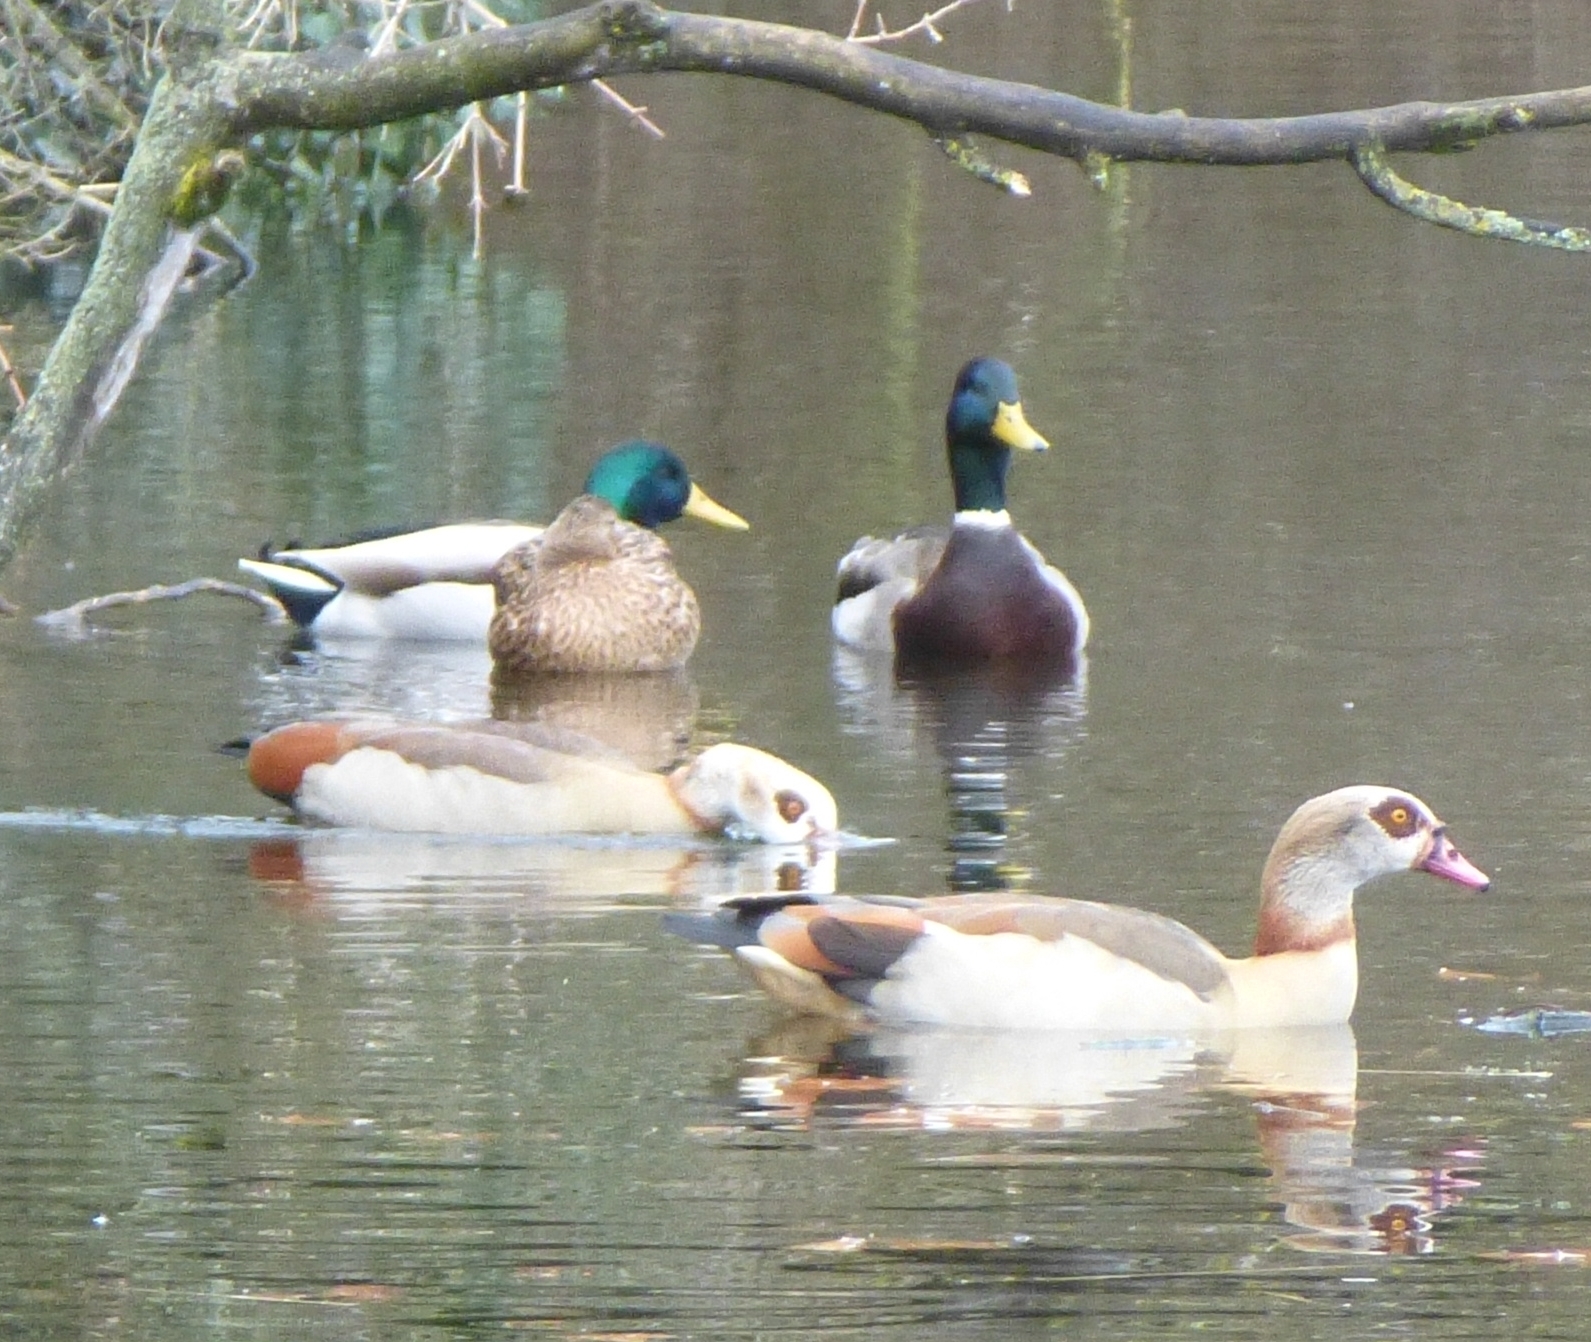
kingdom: Animalia
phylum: Chordata
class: Aves
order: Anseriformes
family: Anatidae
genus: Anas
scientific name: Anas platyrhynchos
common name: Mallard
